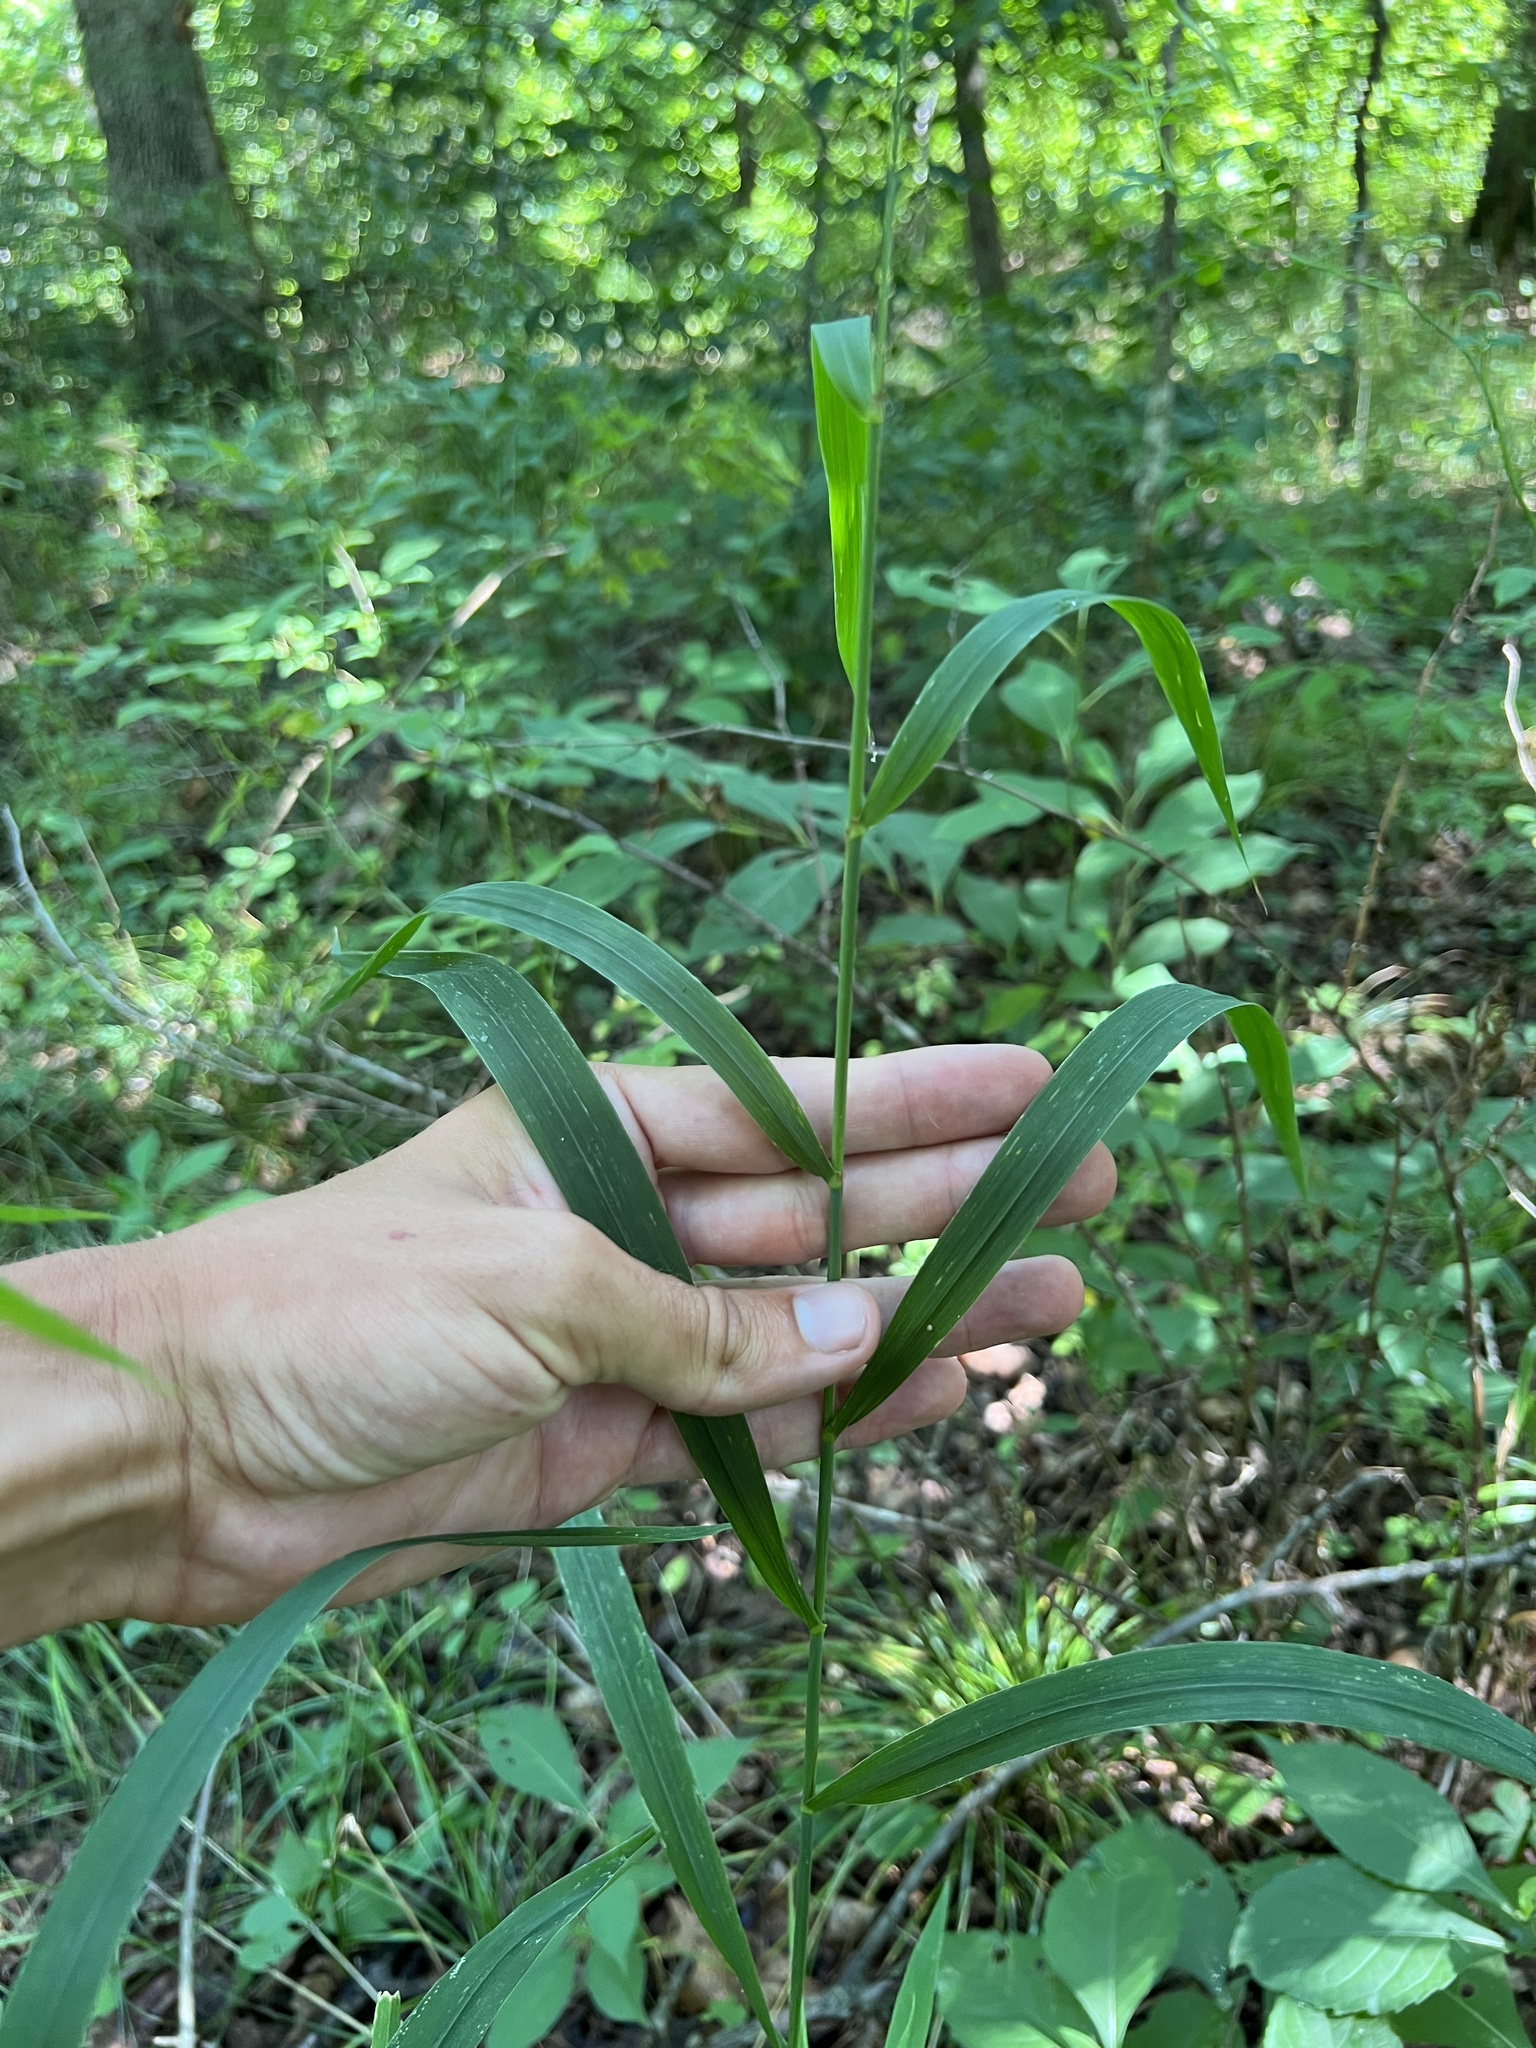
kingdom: Plantae
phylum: Tracheophyta
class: Liliopsida
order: Poales
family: Poaceae
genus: Cinna
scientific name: Cinna arundinacea
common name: Stout woodreed
